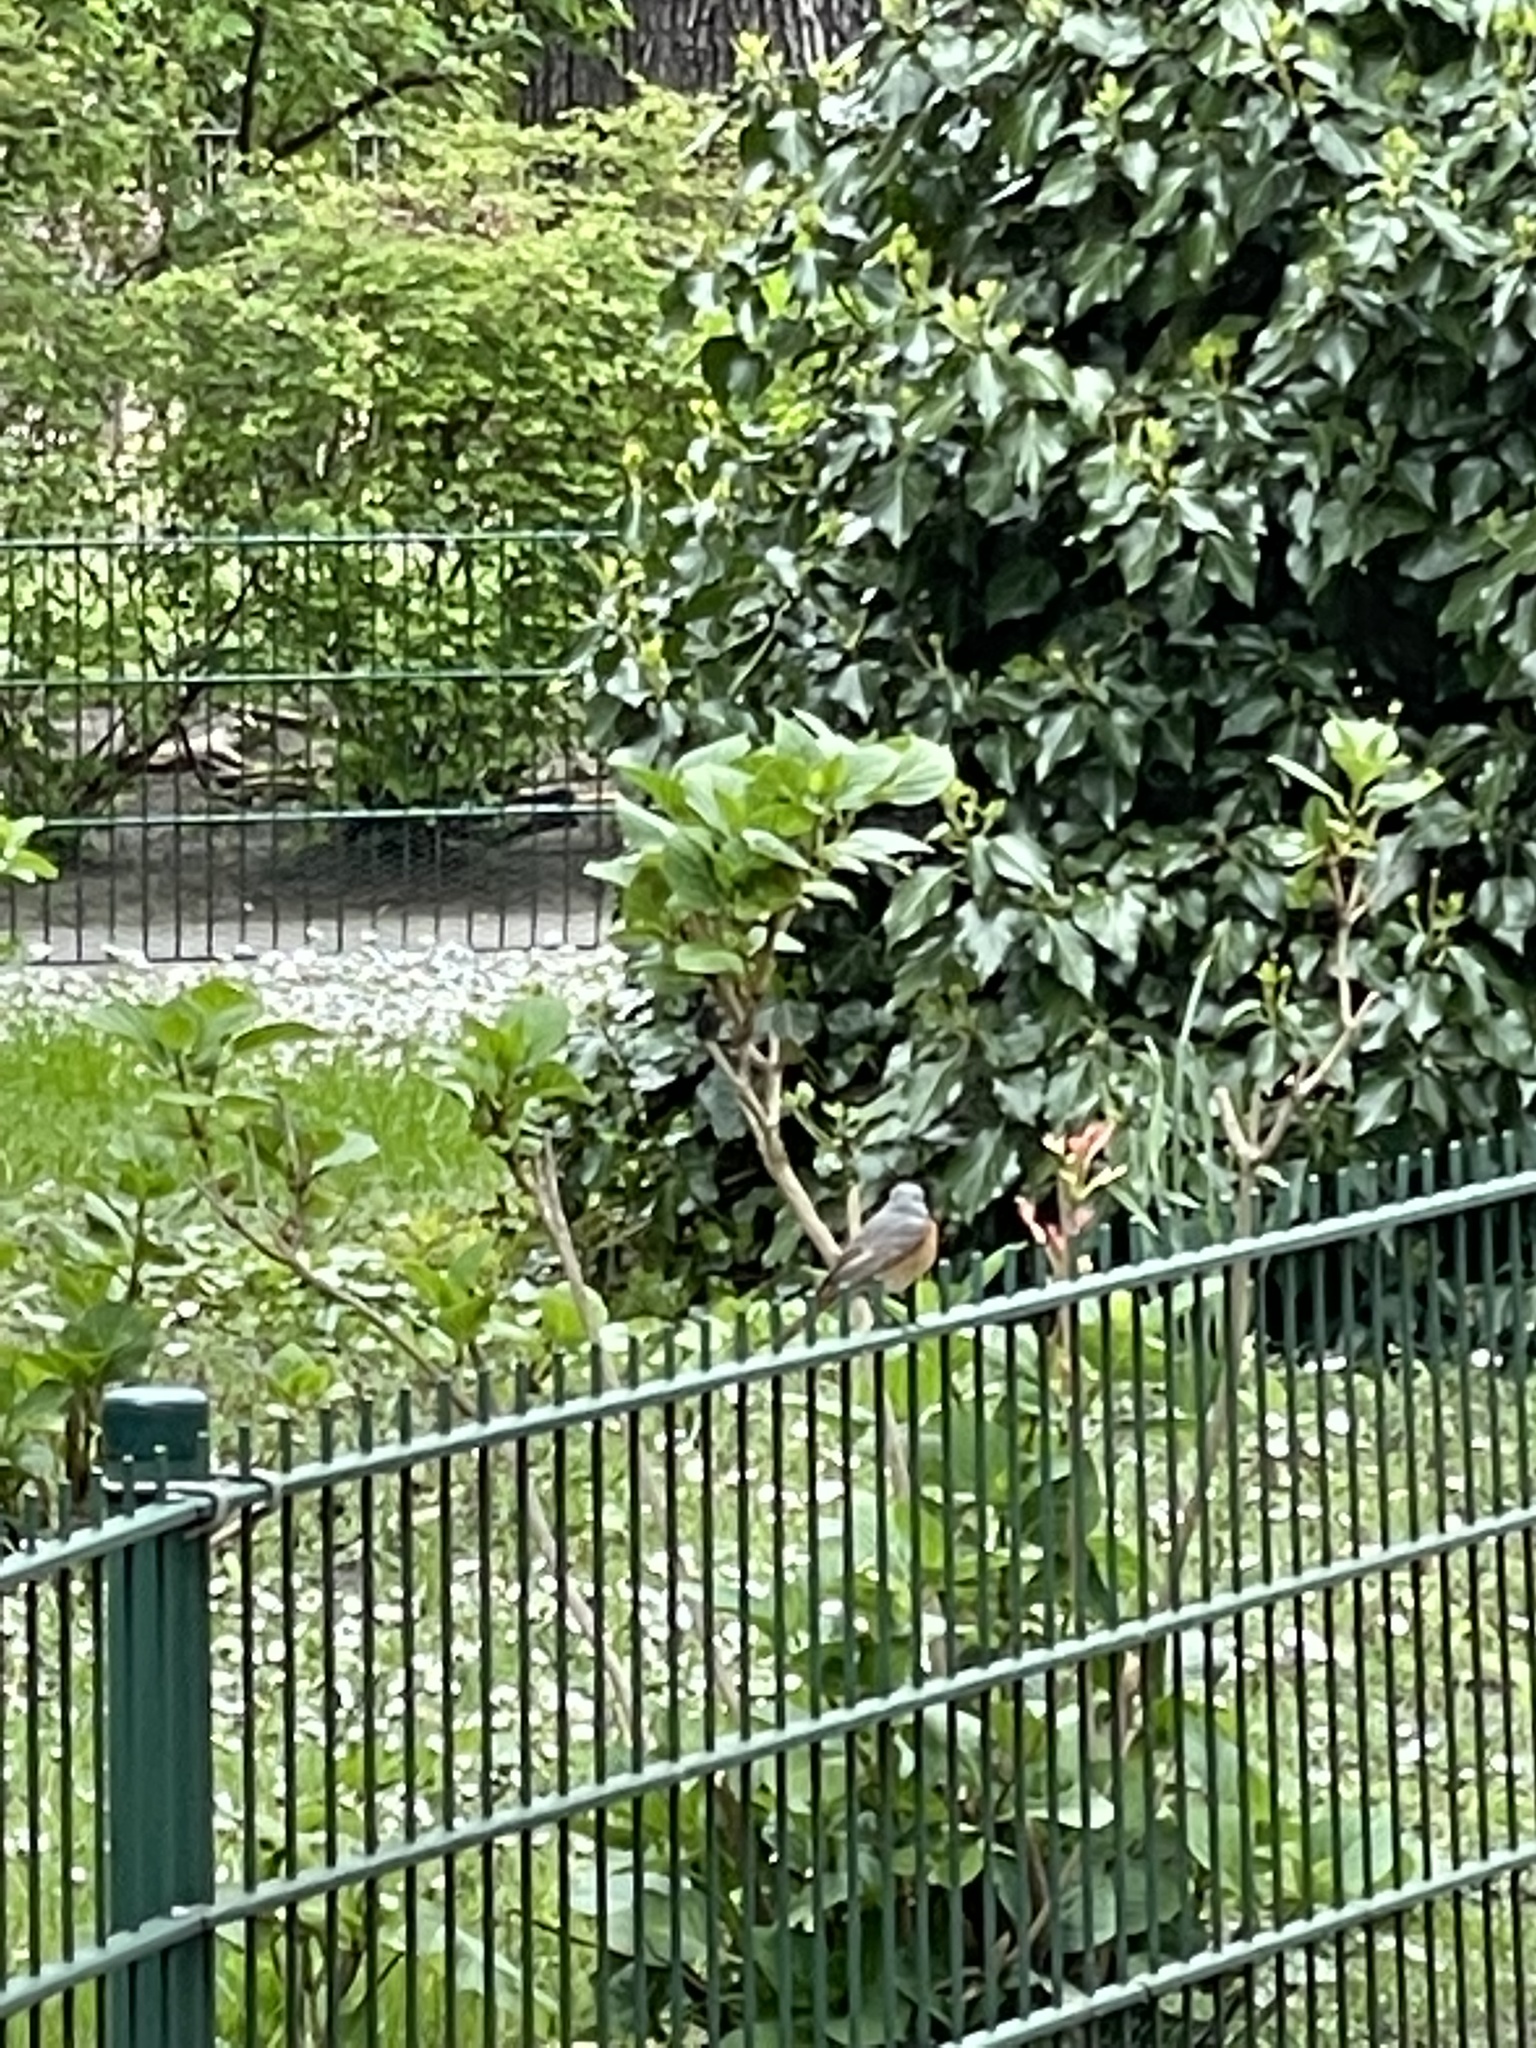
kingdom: Animalia
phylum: Chordata
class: Aves
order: Passeriformes
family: Muscicapidae
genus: Phoenicurus
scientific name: Phoenicurus phoenicurus
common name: Common redstart
